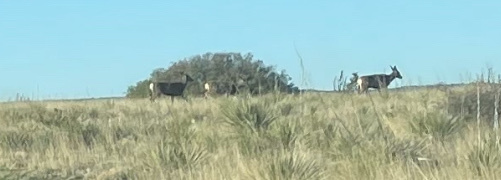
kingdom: Animalia
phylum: Chordata
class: Mammalia
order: Artiodactyla
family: Cervidae
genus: Odocoileus
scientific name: Odocoileus hemionus
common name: Mule deer
